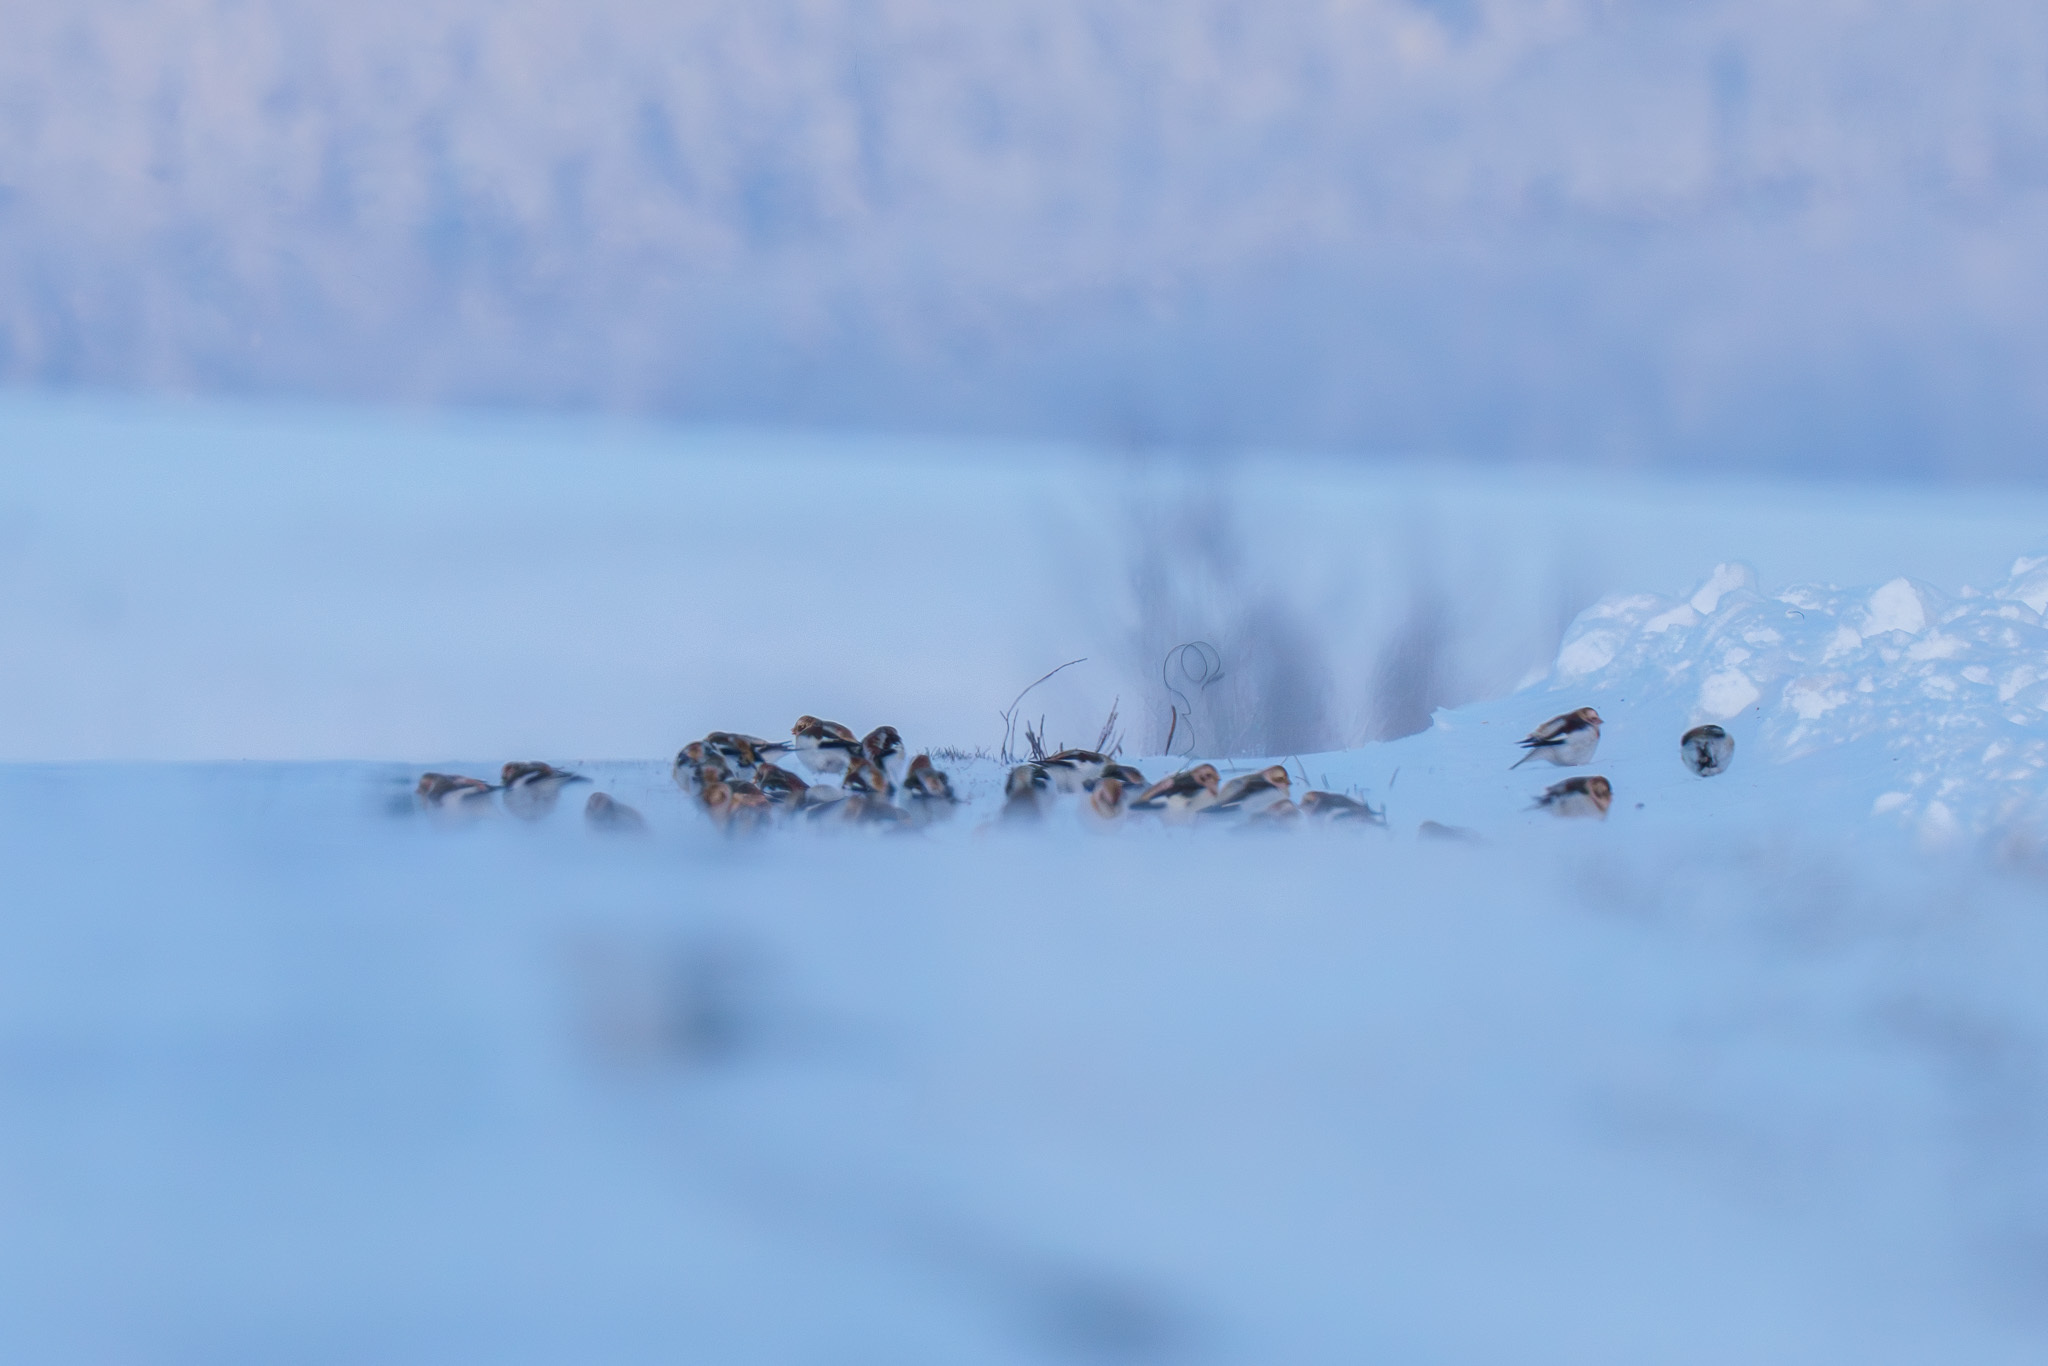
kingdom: Animalia
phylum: Chordata
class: Aves
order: Passeriformes
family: Calcariidae
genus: Plectrophenax
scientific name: Plectrophenax nivalis
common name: Snow bunting
